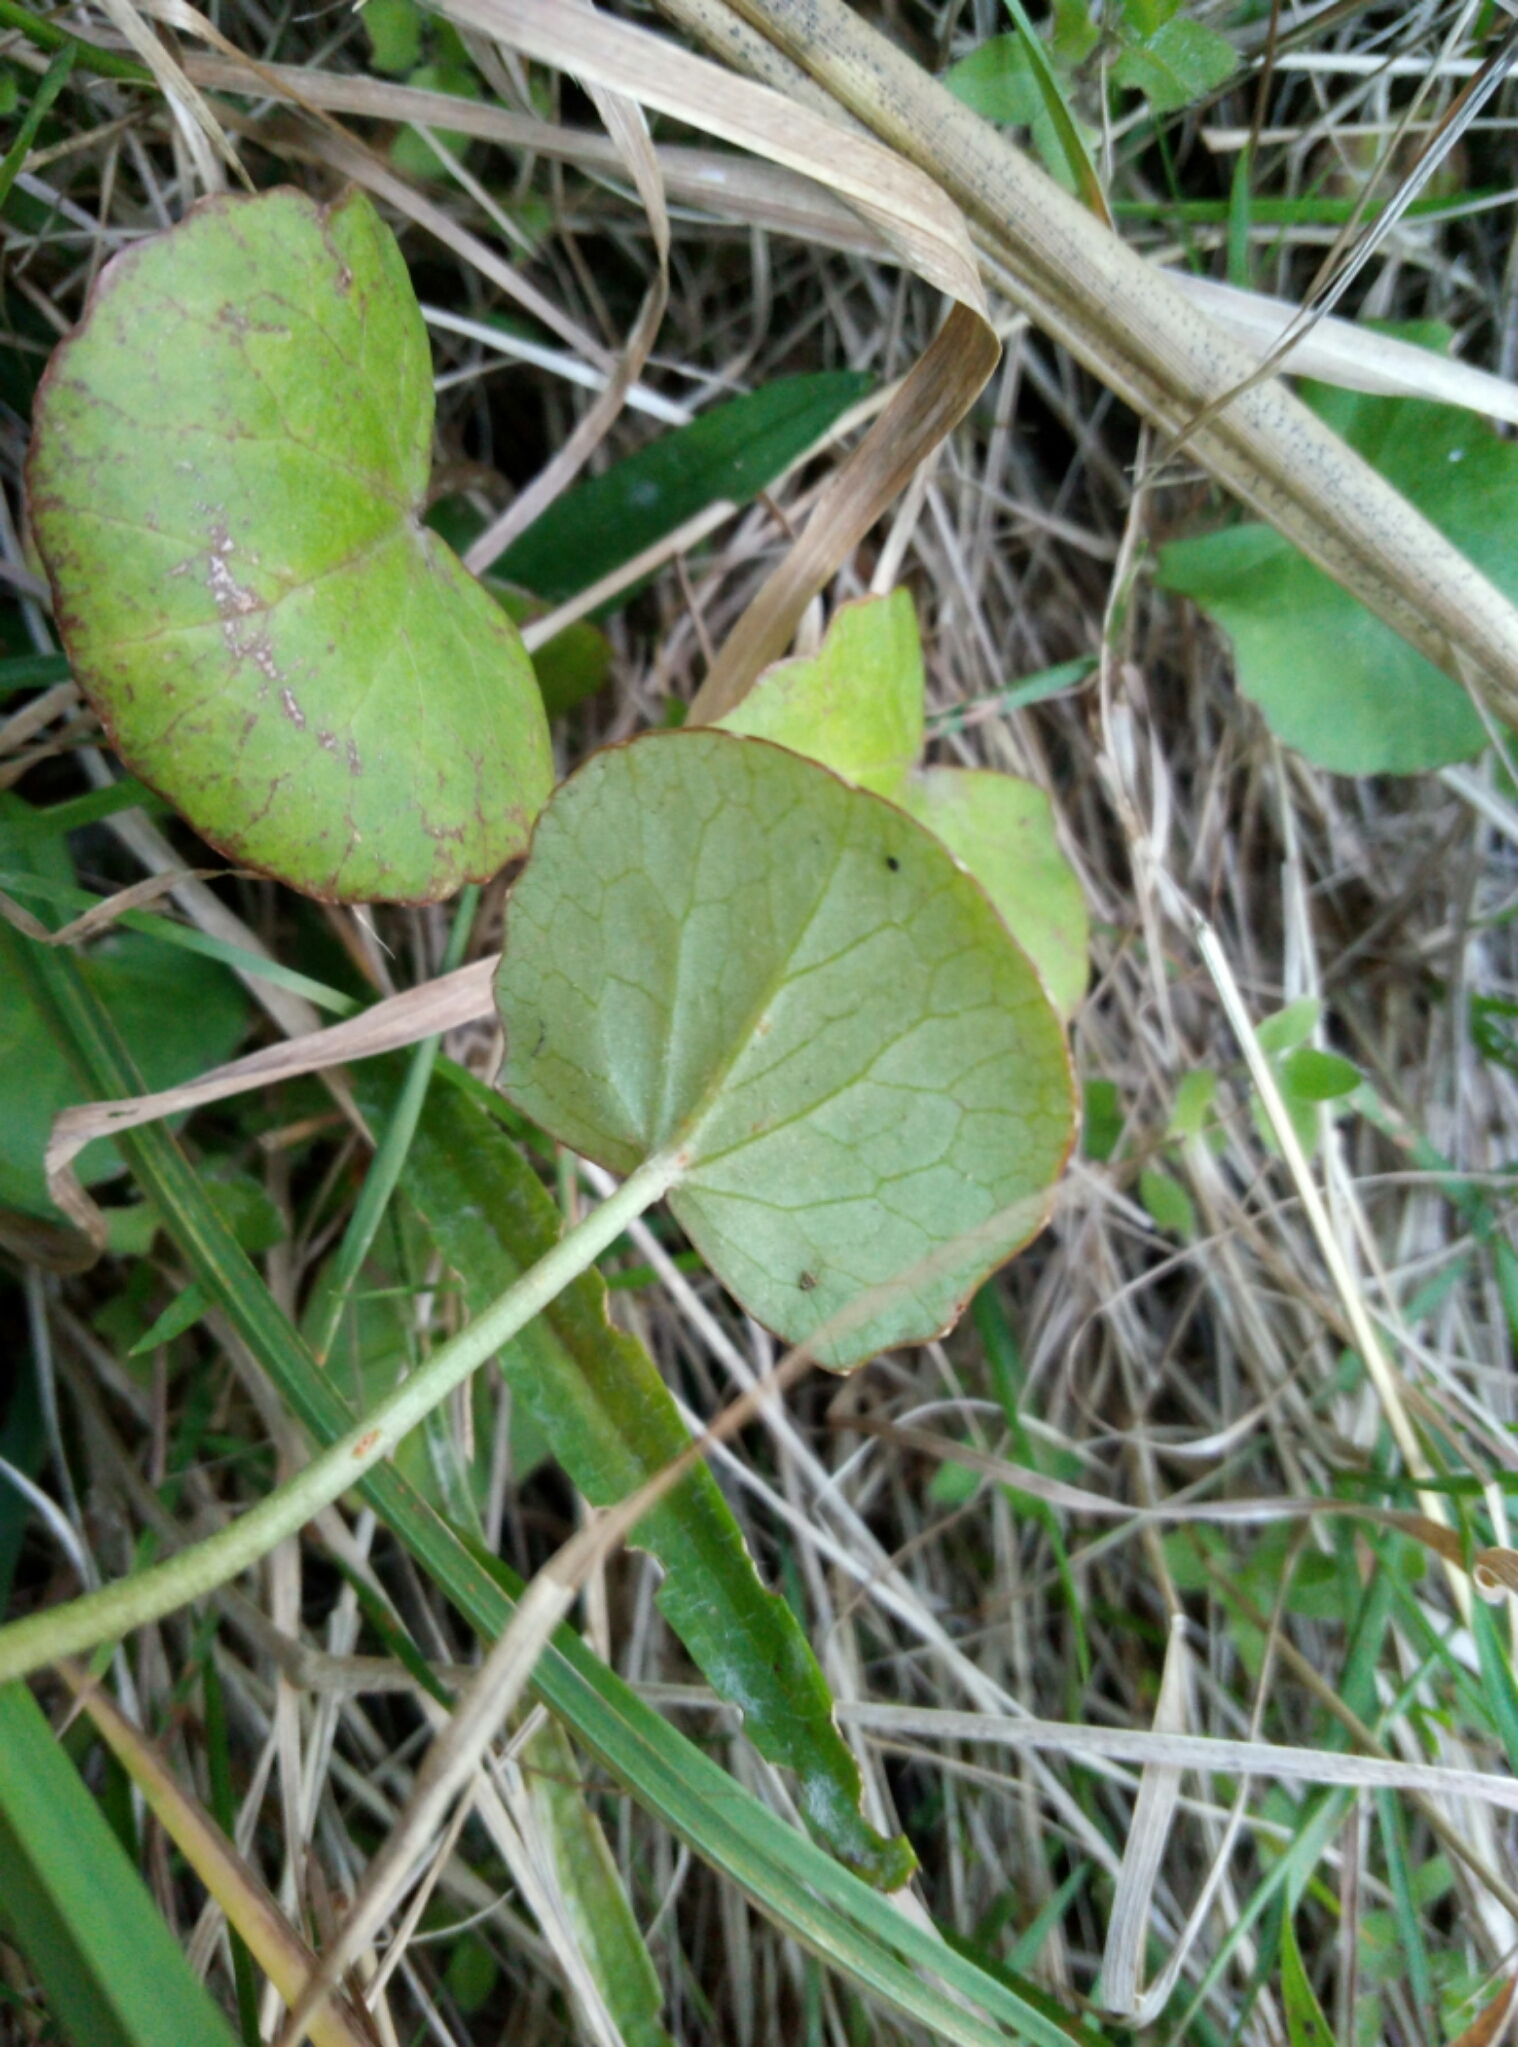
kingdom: Plantae
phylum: Tracheophyta
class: Magnoliopsida
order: Apiales
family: Apiaceae
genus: Centella
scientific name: Centella uniflora
